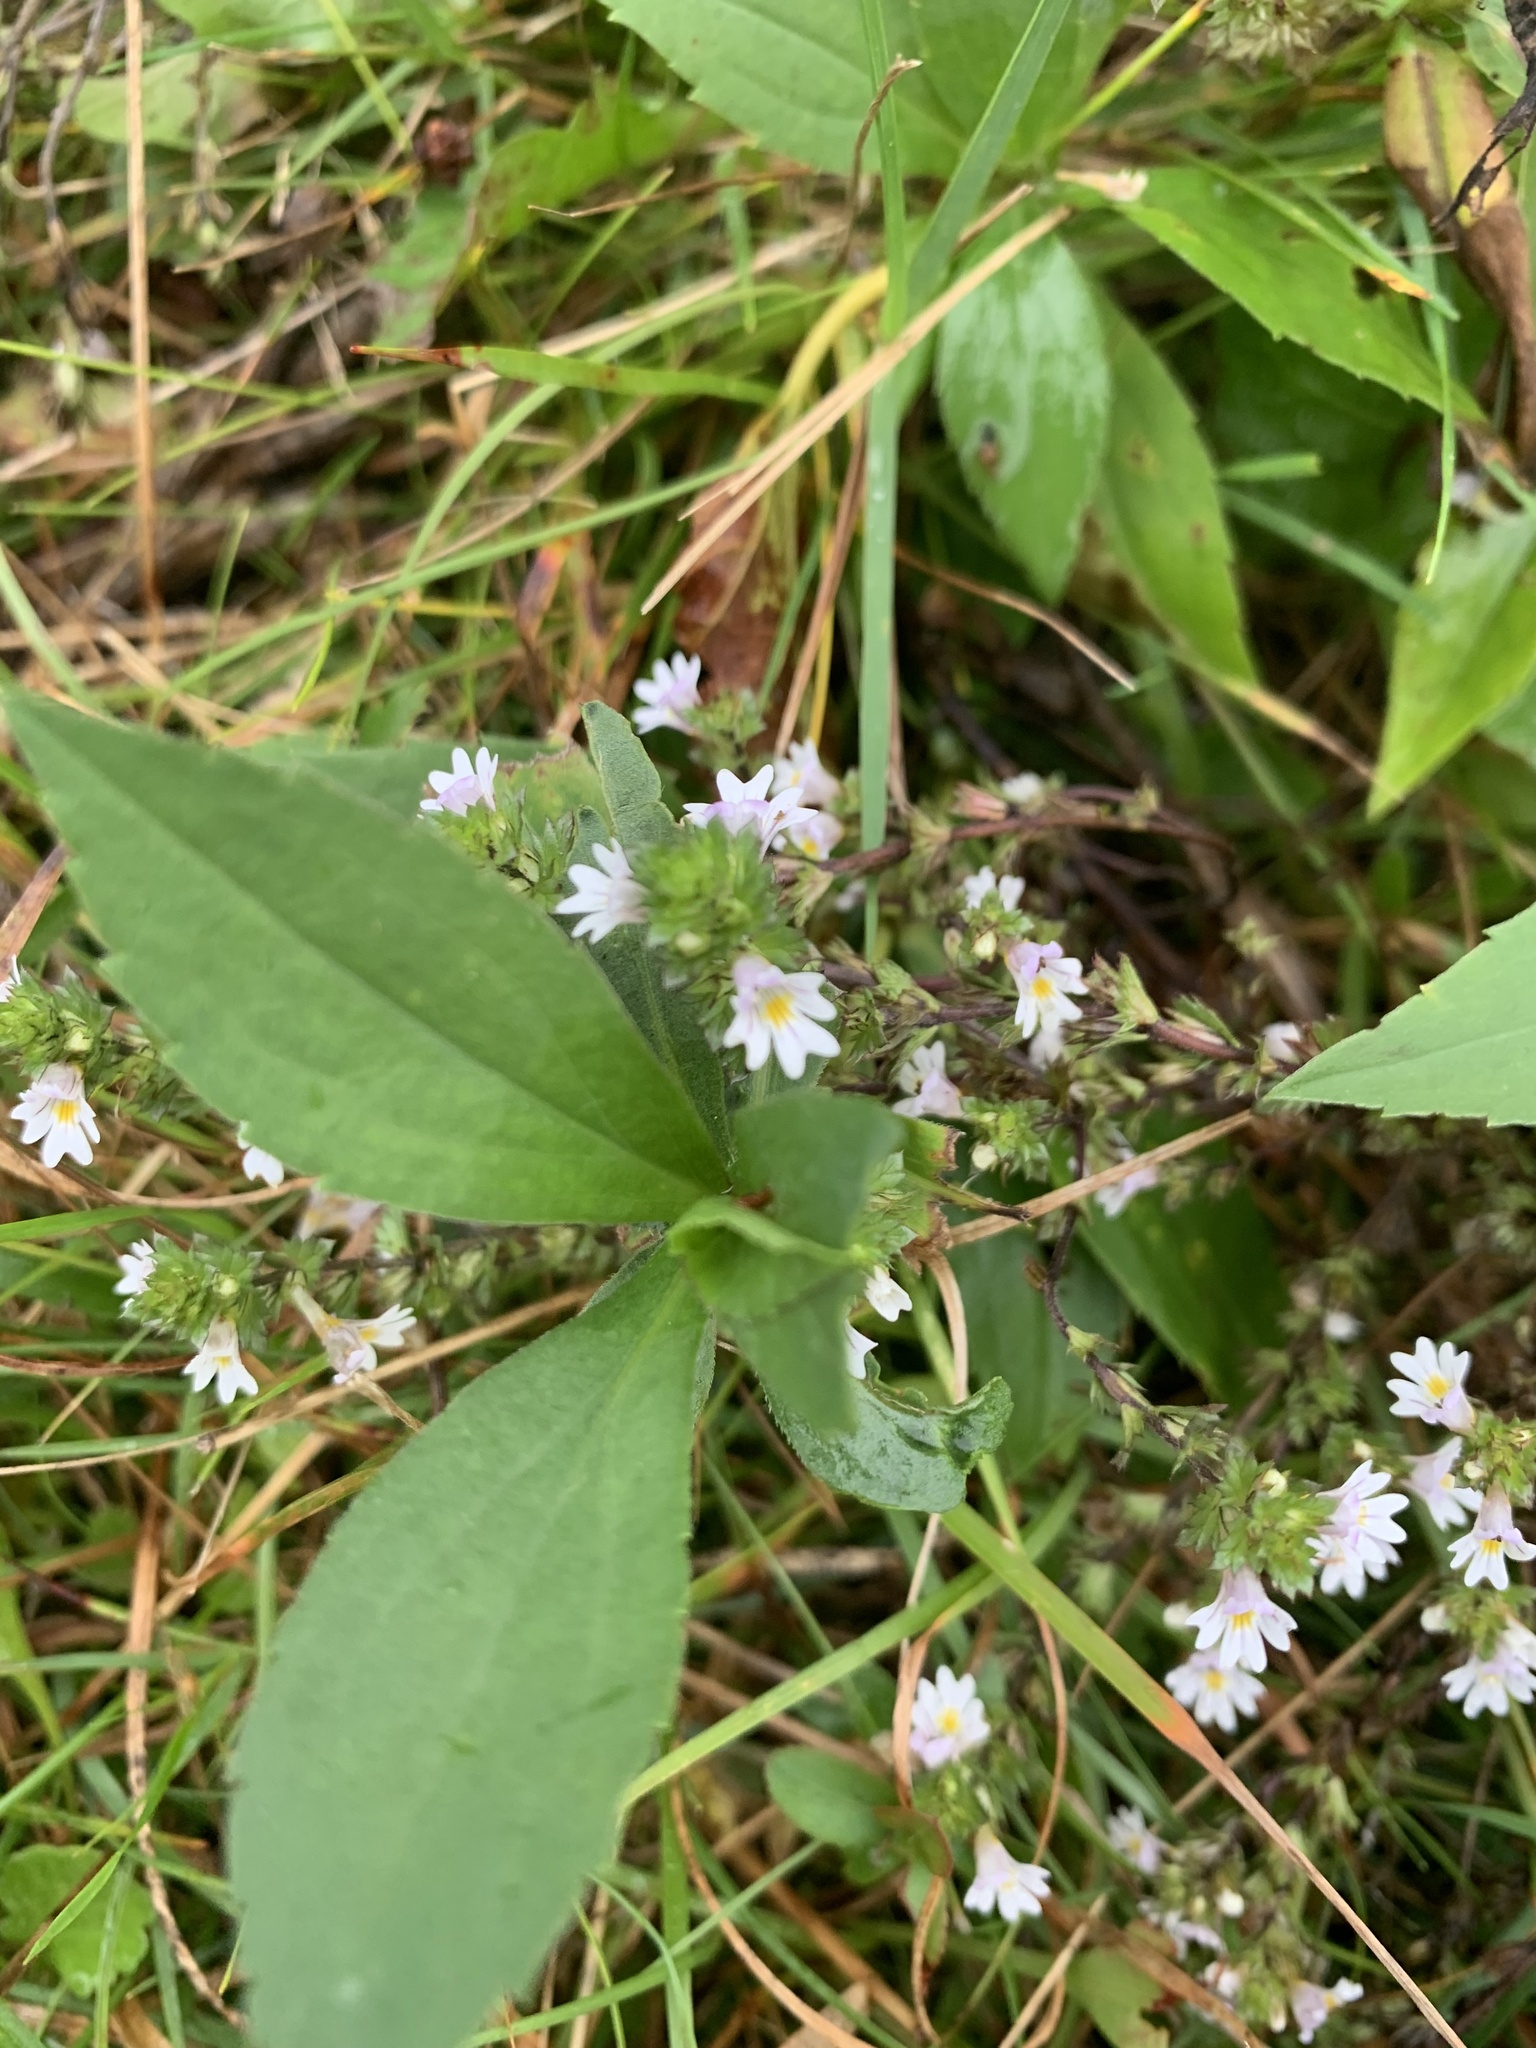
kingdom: Plantae
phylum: Tracheophyta
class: Magnoliopsida
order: Lamiales
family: Orobanchaceae
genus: Euphrasia
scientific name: Euphrasia nemorosa
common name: Common eyebright
